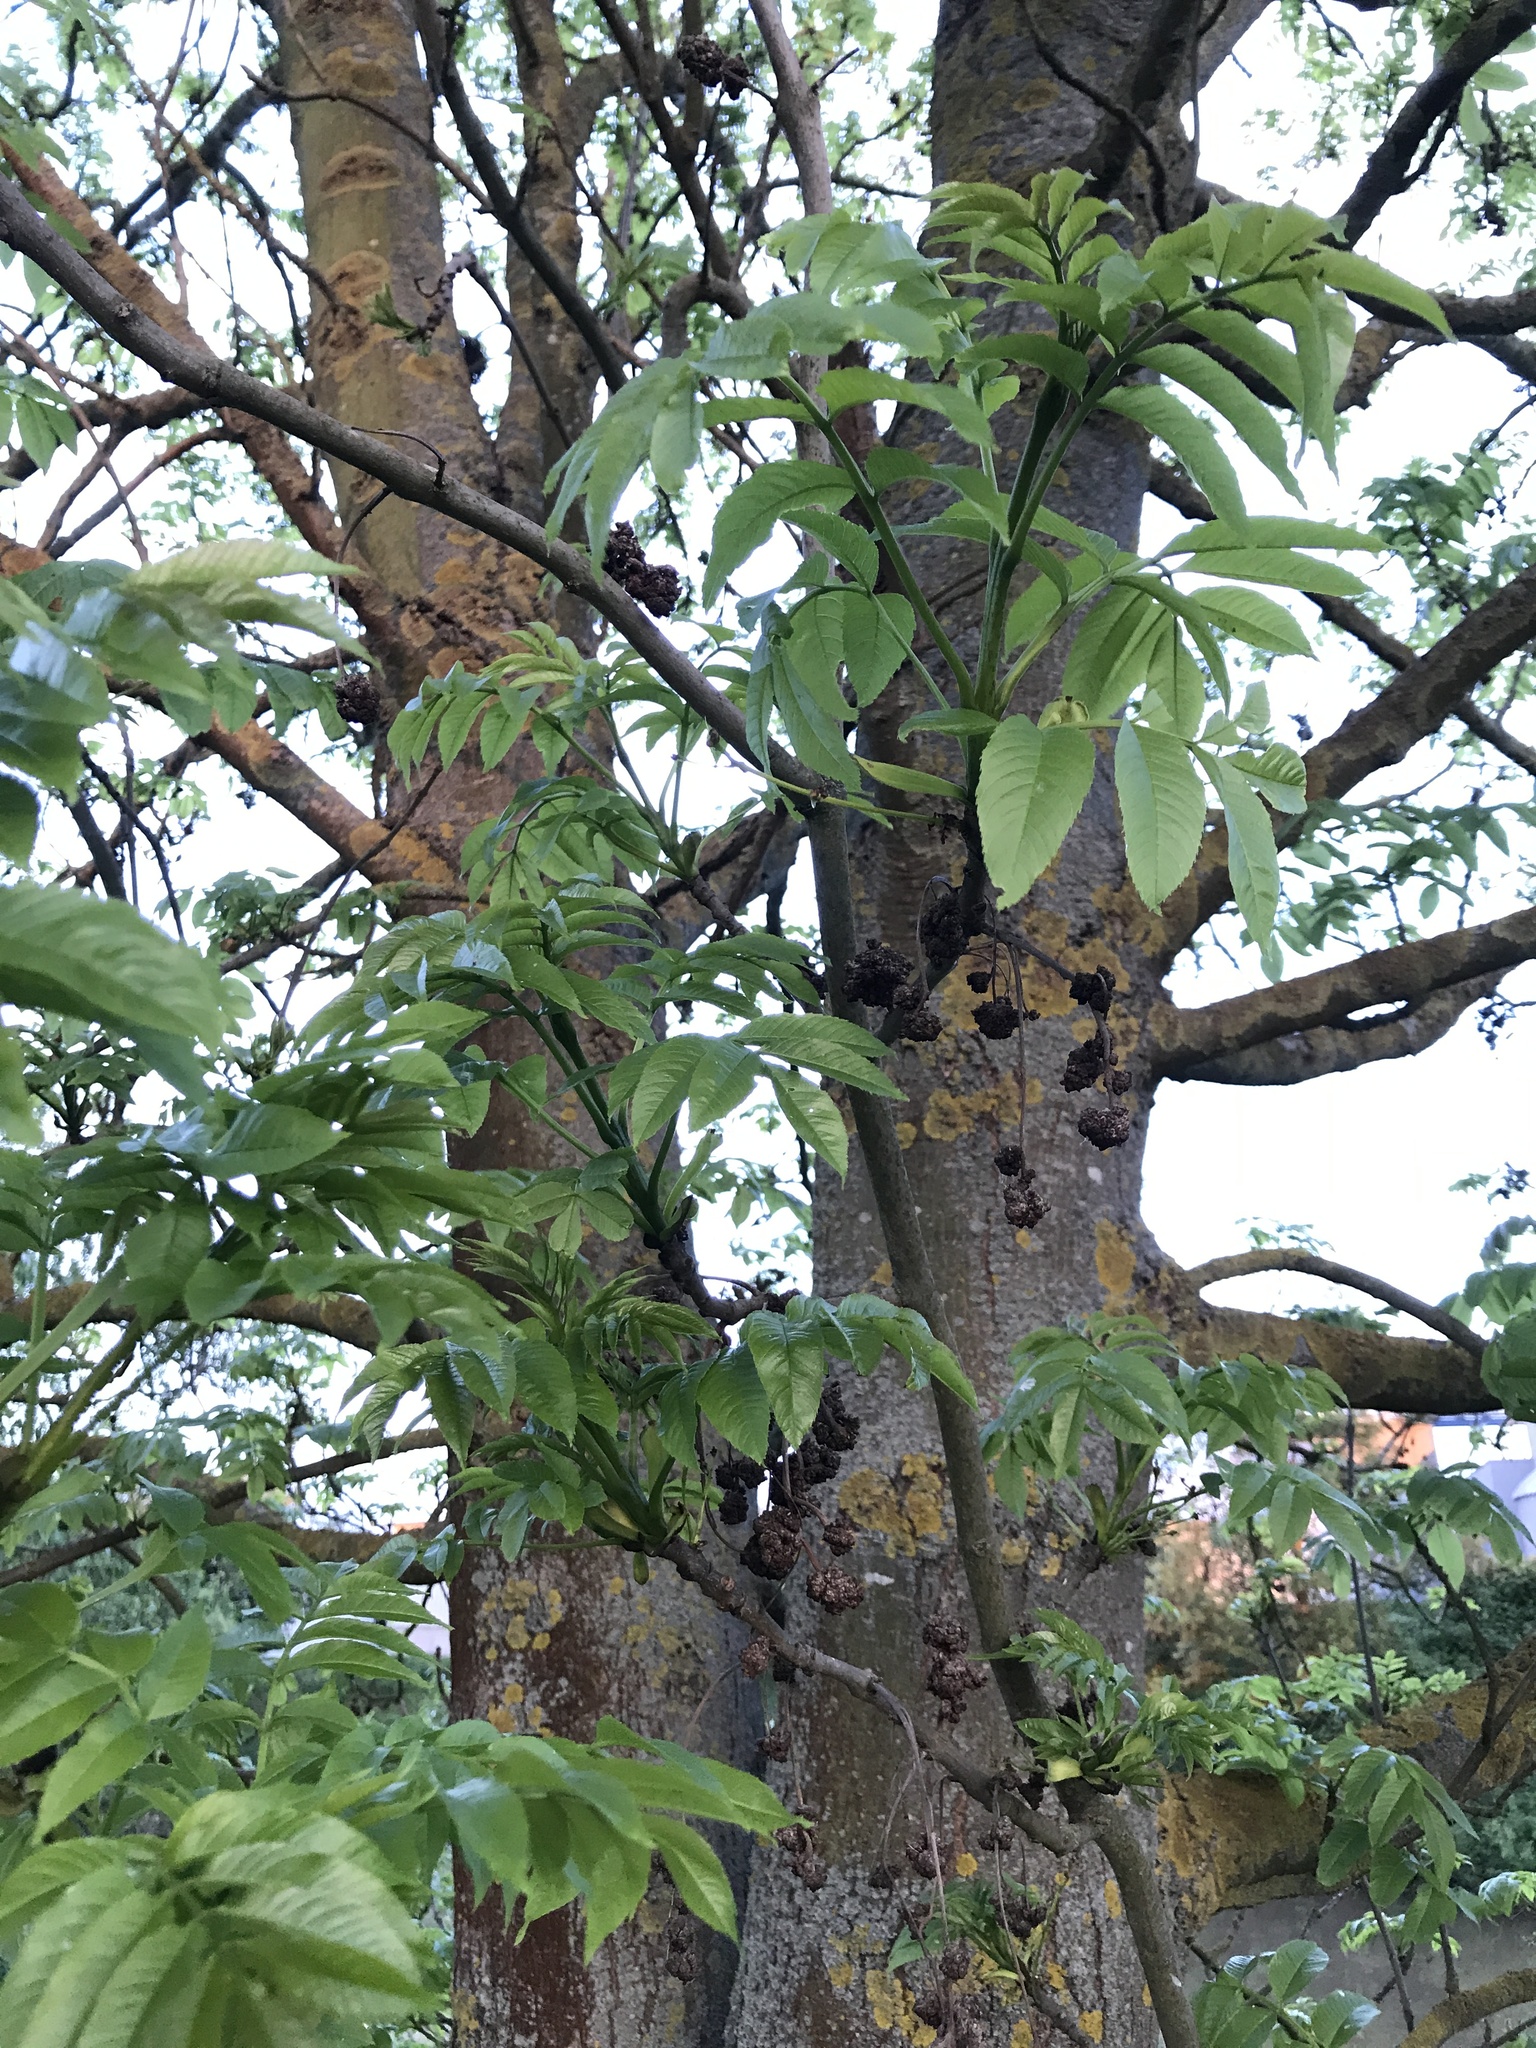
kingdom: Plantae
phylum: Tracheophyta
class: Magnoliopsida
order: Lamiales
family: Oleaceae
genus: Fraxinus
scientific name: Fraxinus excelsior
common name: European ash
